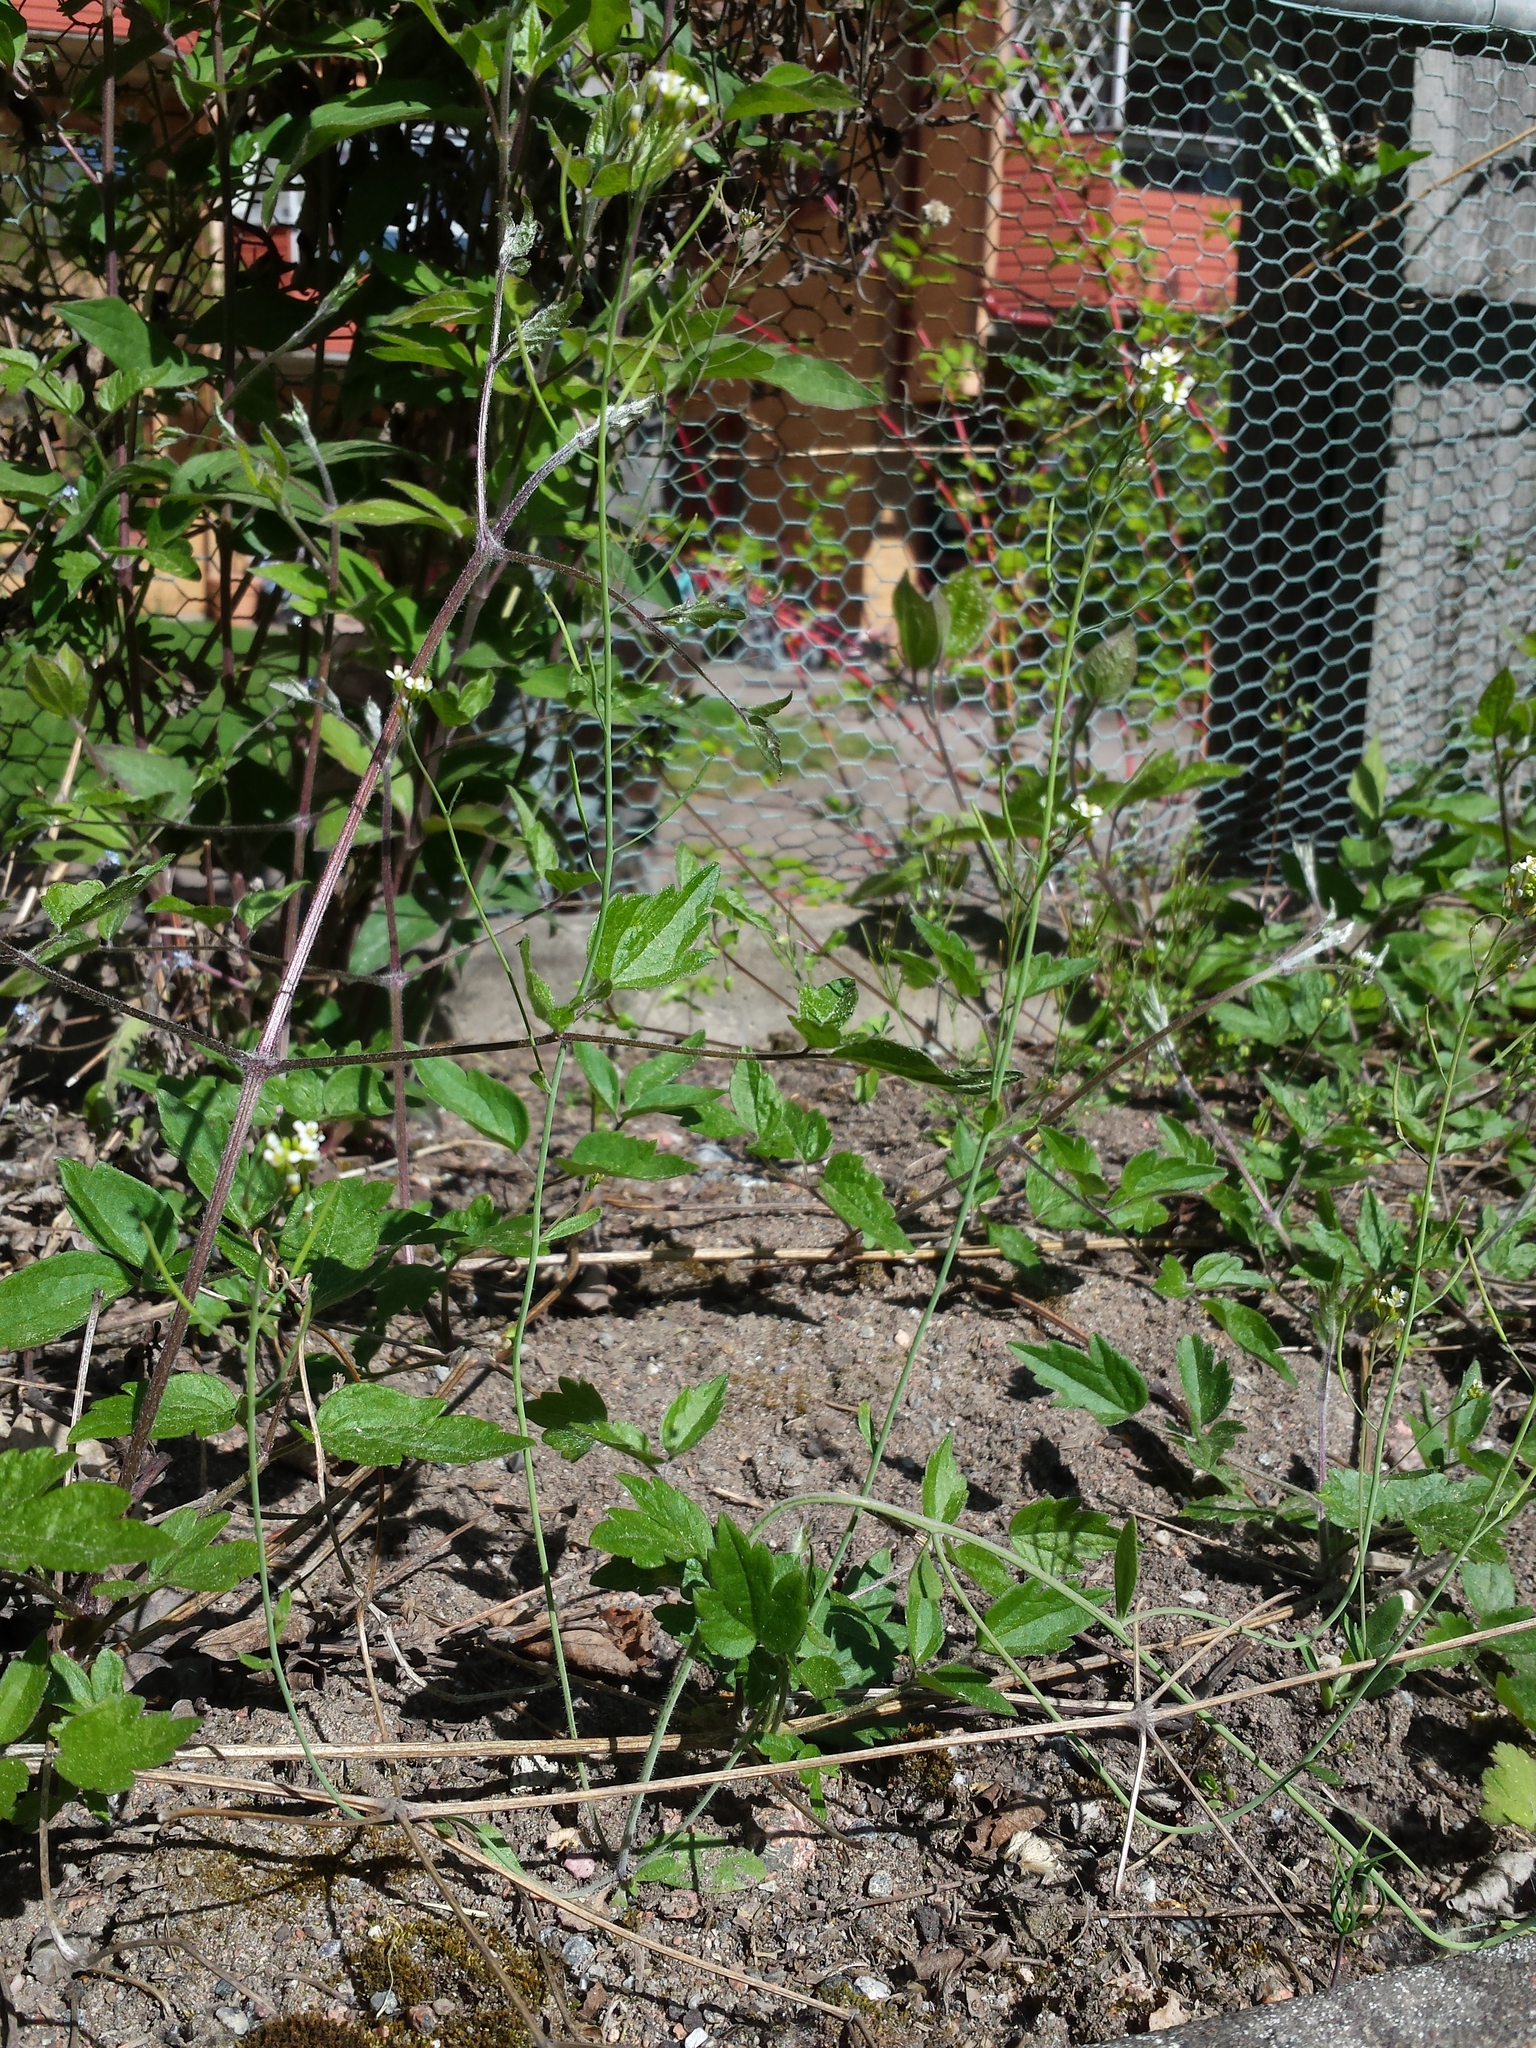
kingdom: Plantae
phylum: Tracheophyta
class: Magnoliopsida
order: Brassicales
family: Brassicaceae
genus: Arabidopsis
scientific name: Arabidopsis thaliana
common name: Thale cress
